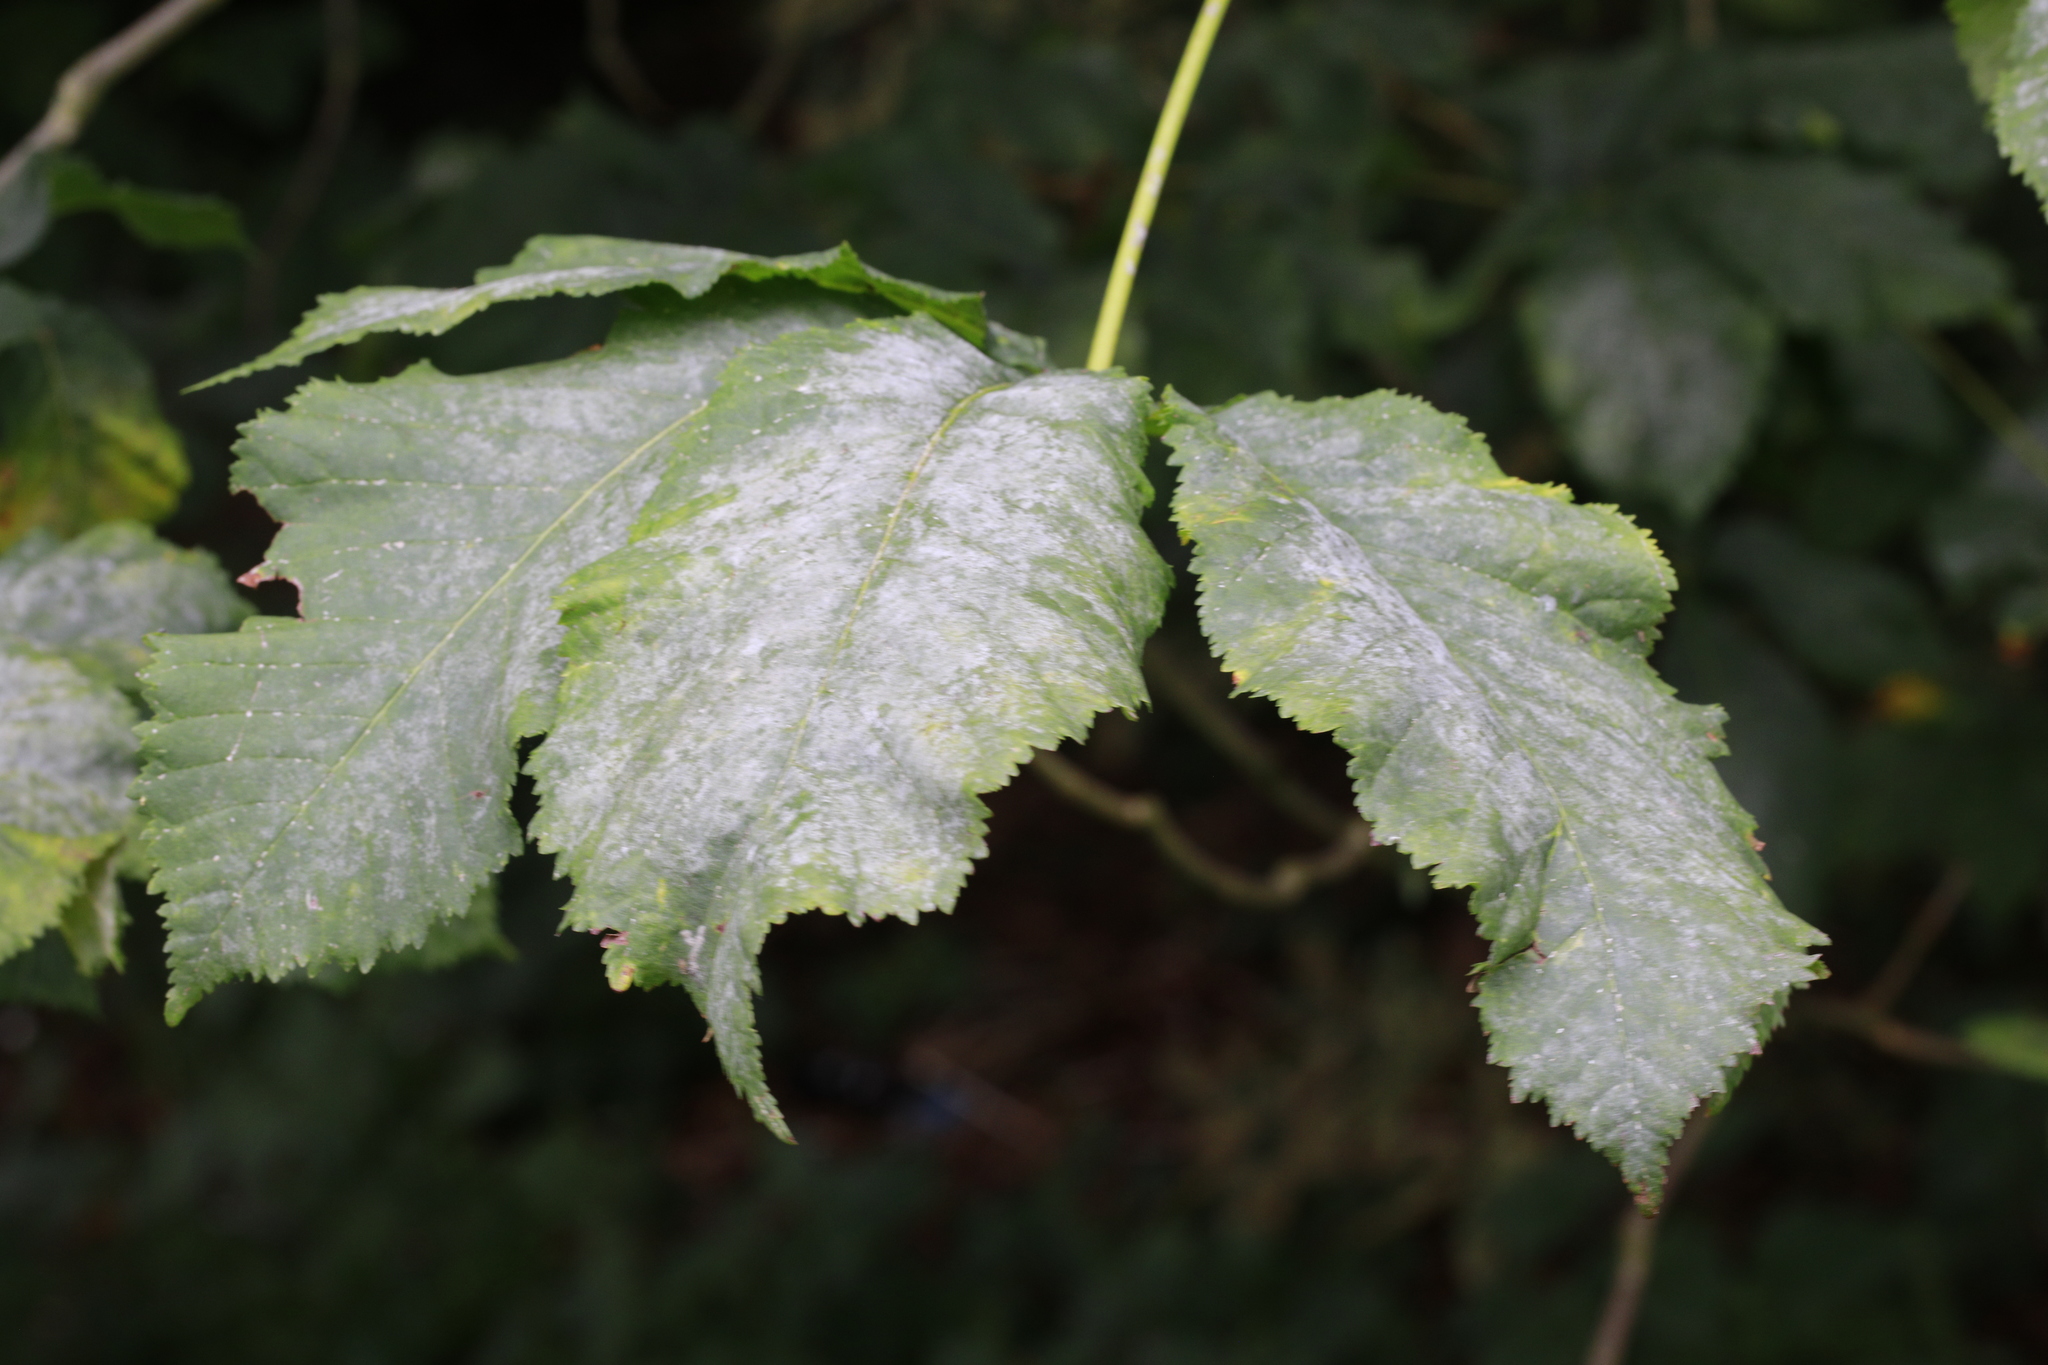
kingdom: Fungi
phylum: Ascomycota
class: Leotiomycetes
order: Helotiales
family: Erysiphaceae
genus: Erysiphe
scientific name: Erysiphe flexuosa
